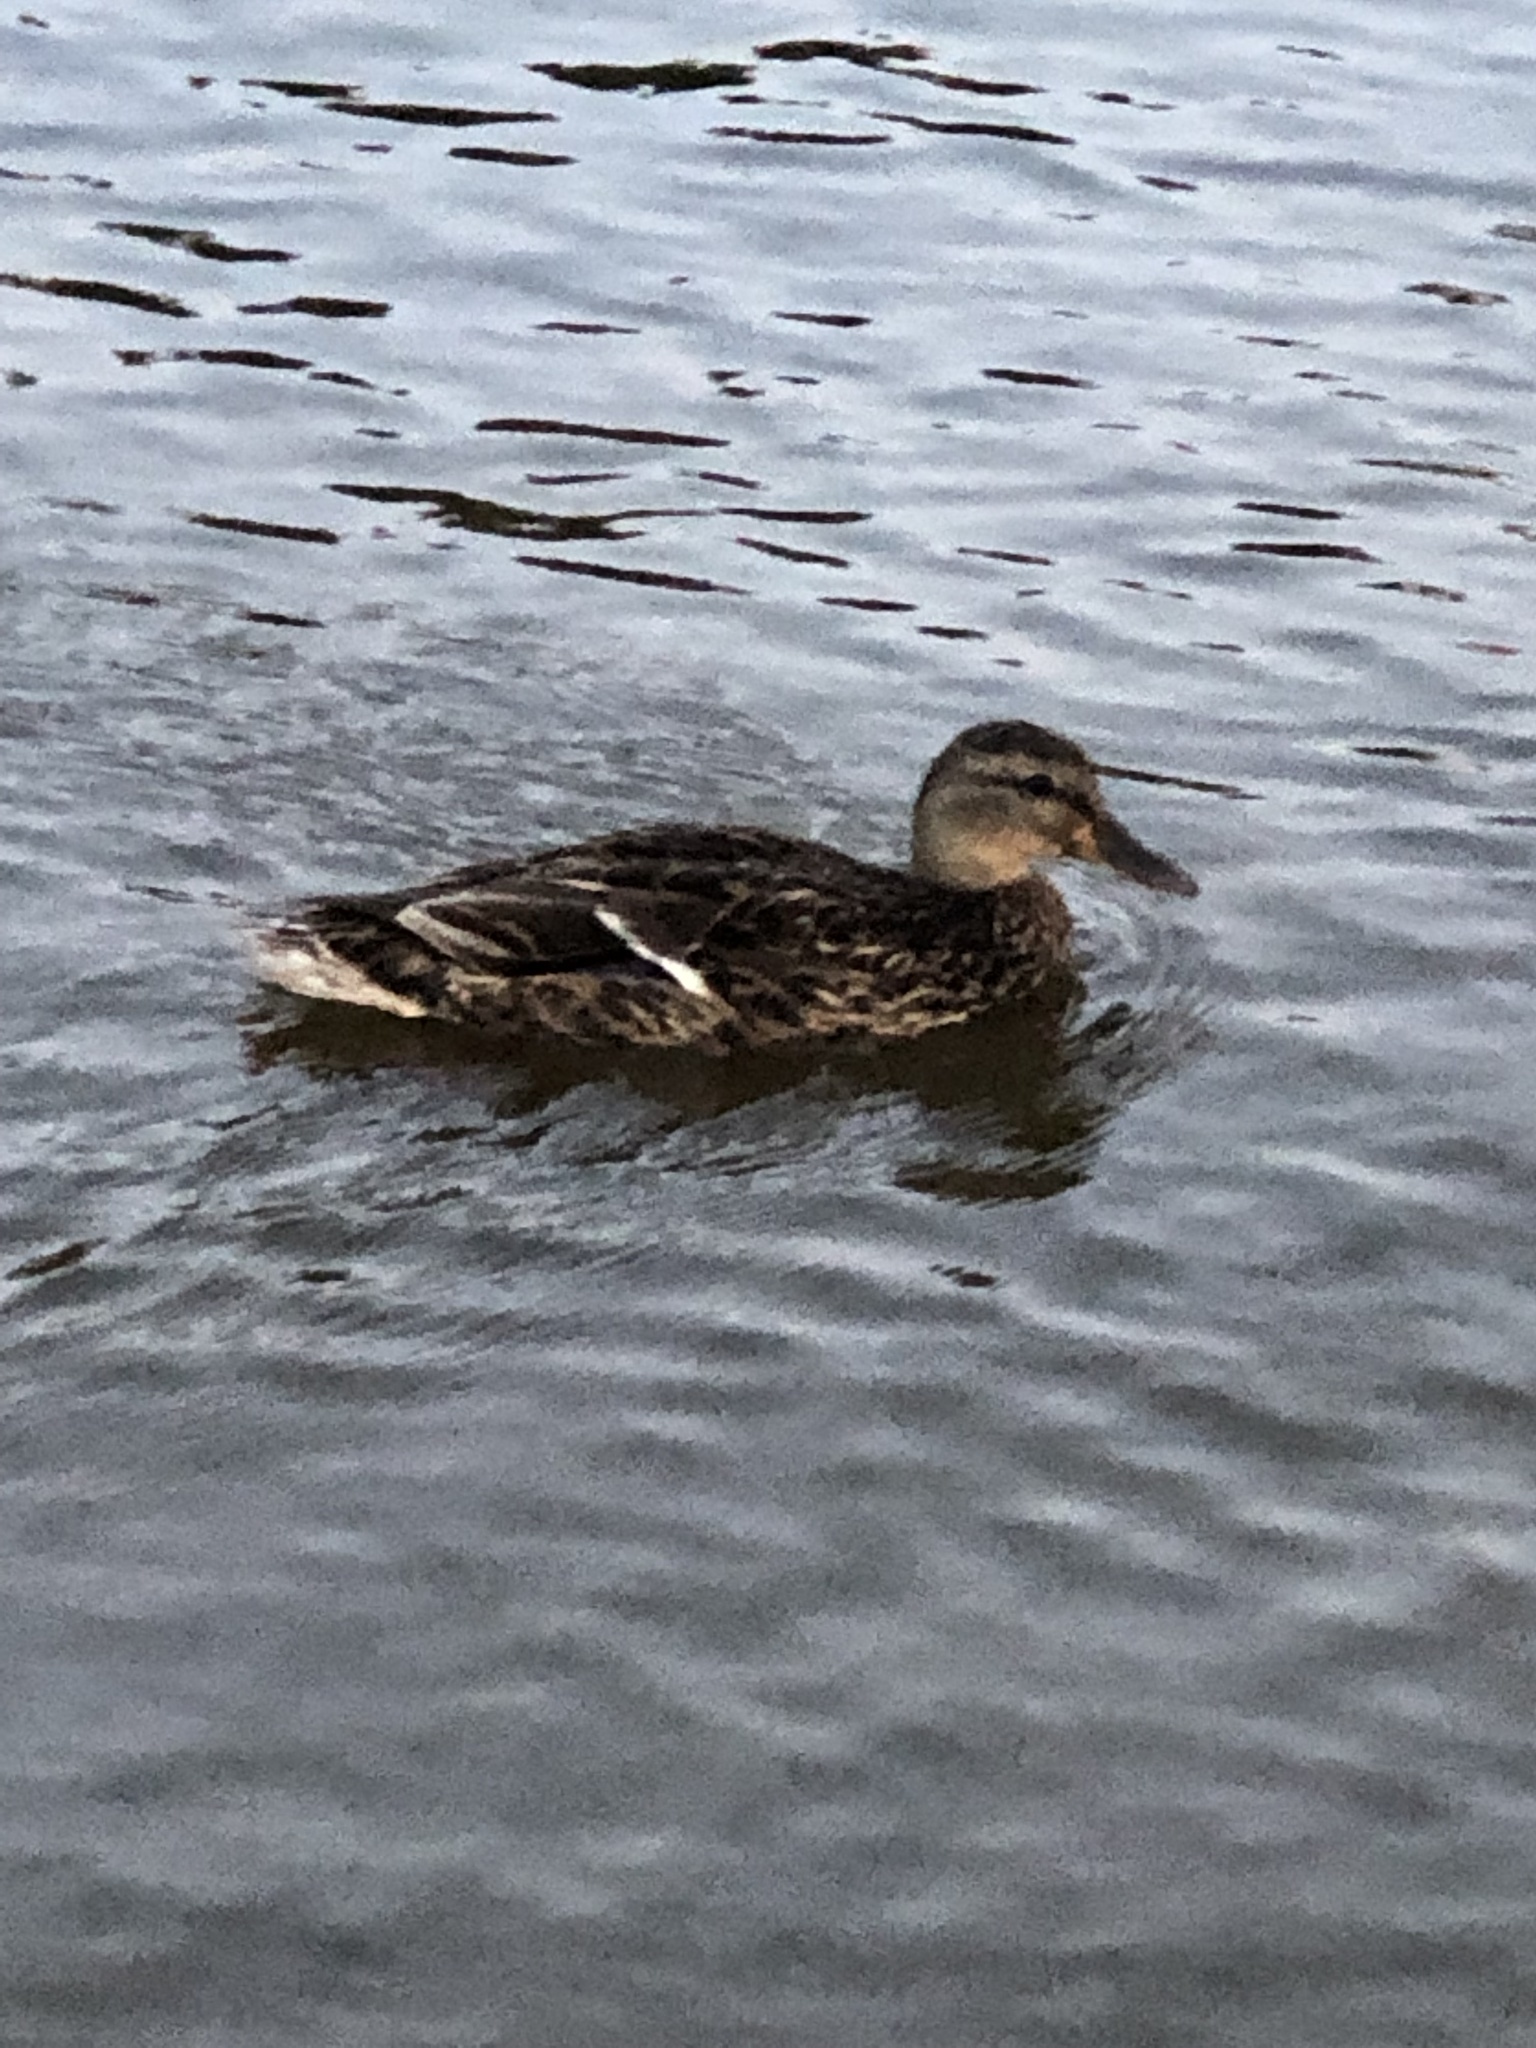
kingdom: Animalia
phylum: Chordata
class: Aves
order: Anseriformes
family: Anatidae
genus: Anas
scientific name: Anas platyrhynchos
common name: Mallard
